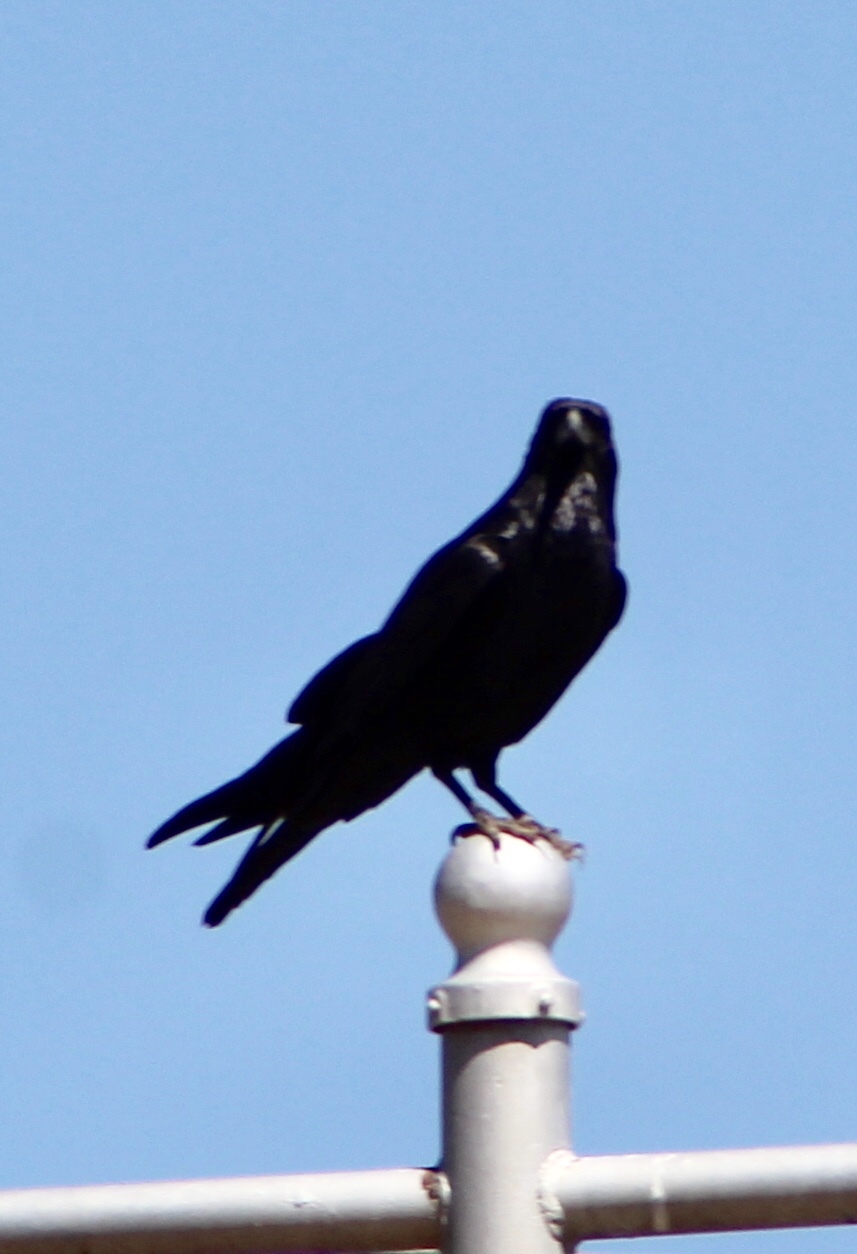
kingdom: Animalia
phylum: Chordata
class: Aves
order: Passeriformes
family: Corvidae
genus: Corvus
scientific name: Corvus cryptoleucus
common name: Chihuahuan raven
